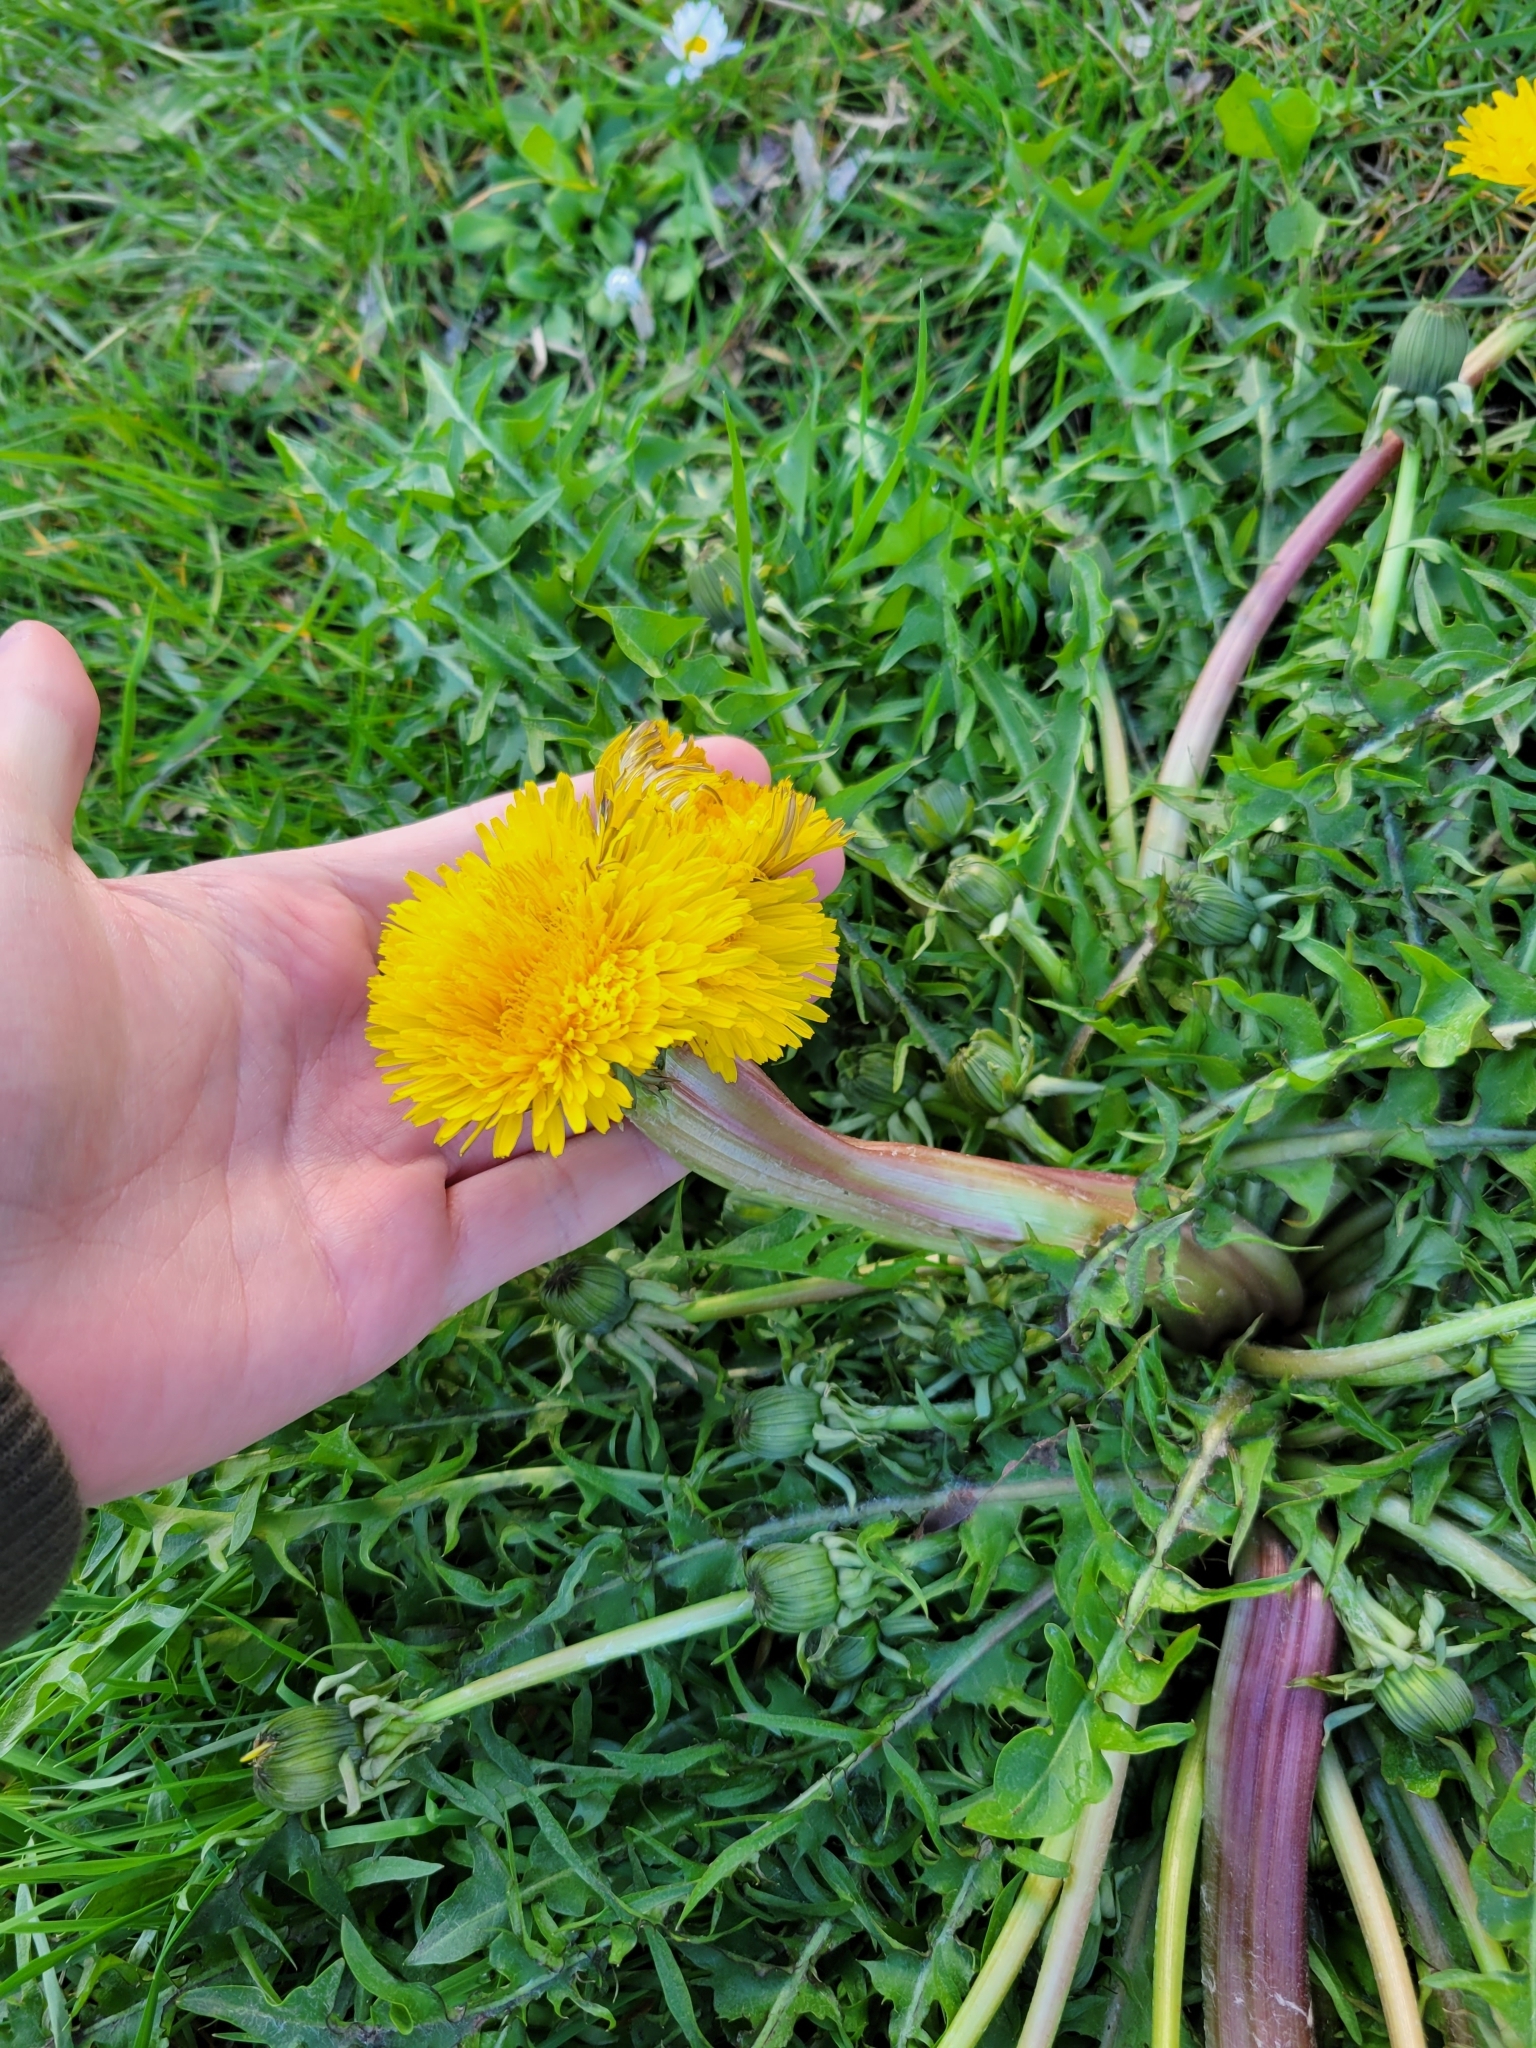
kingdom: Plantae
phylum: Tracheophyta
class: Magnoliopsida
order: Asterales
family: Asteraceae
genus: Taraxacum
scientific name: Taraxacum officinale
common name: Common dandelion
